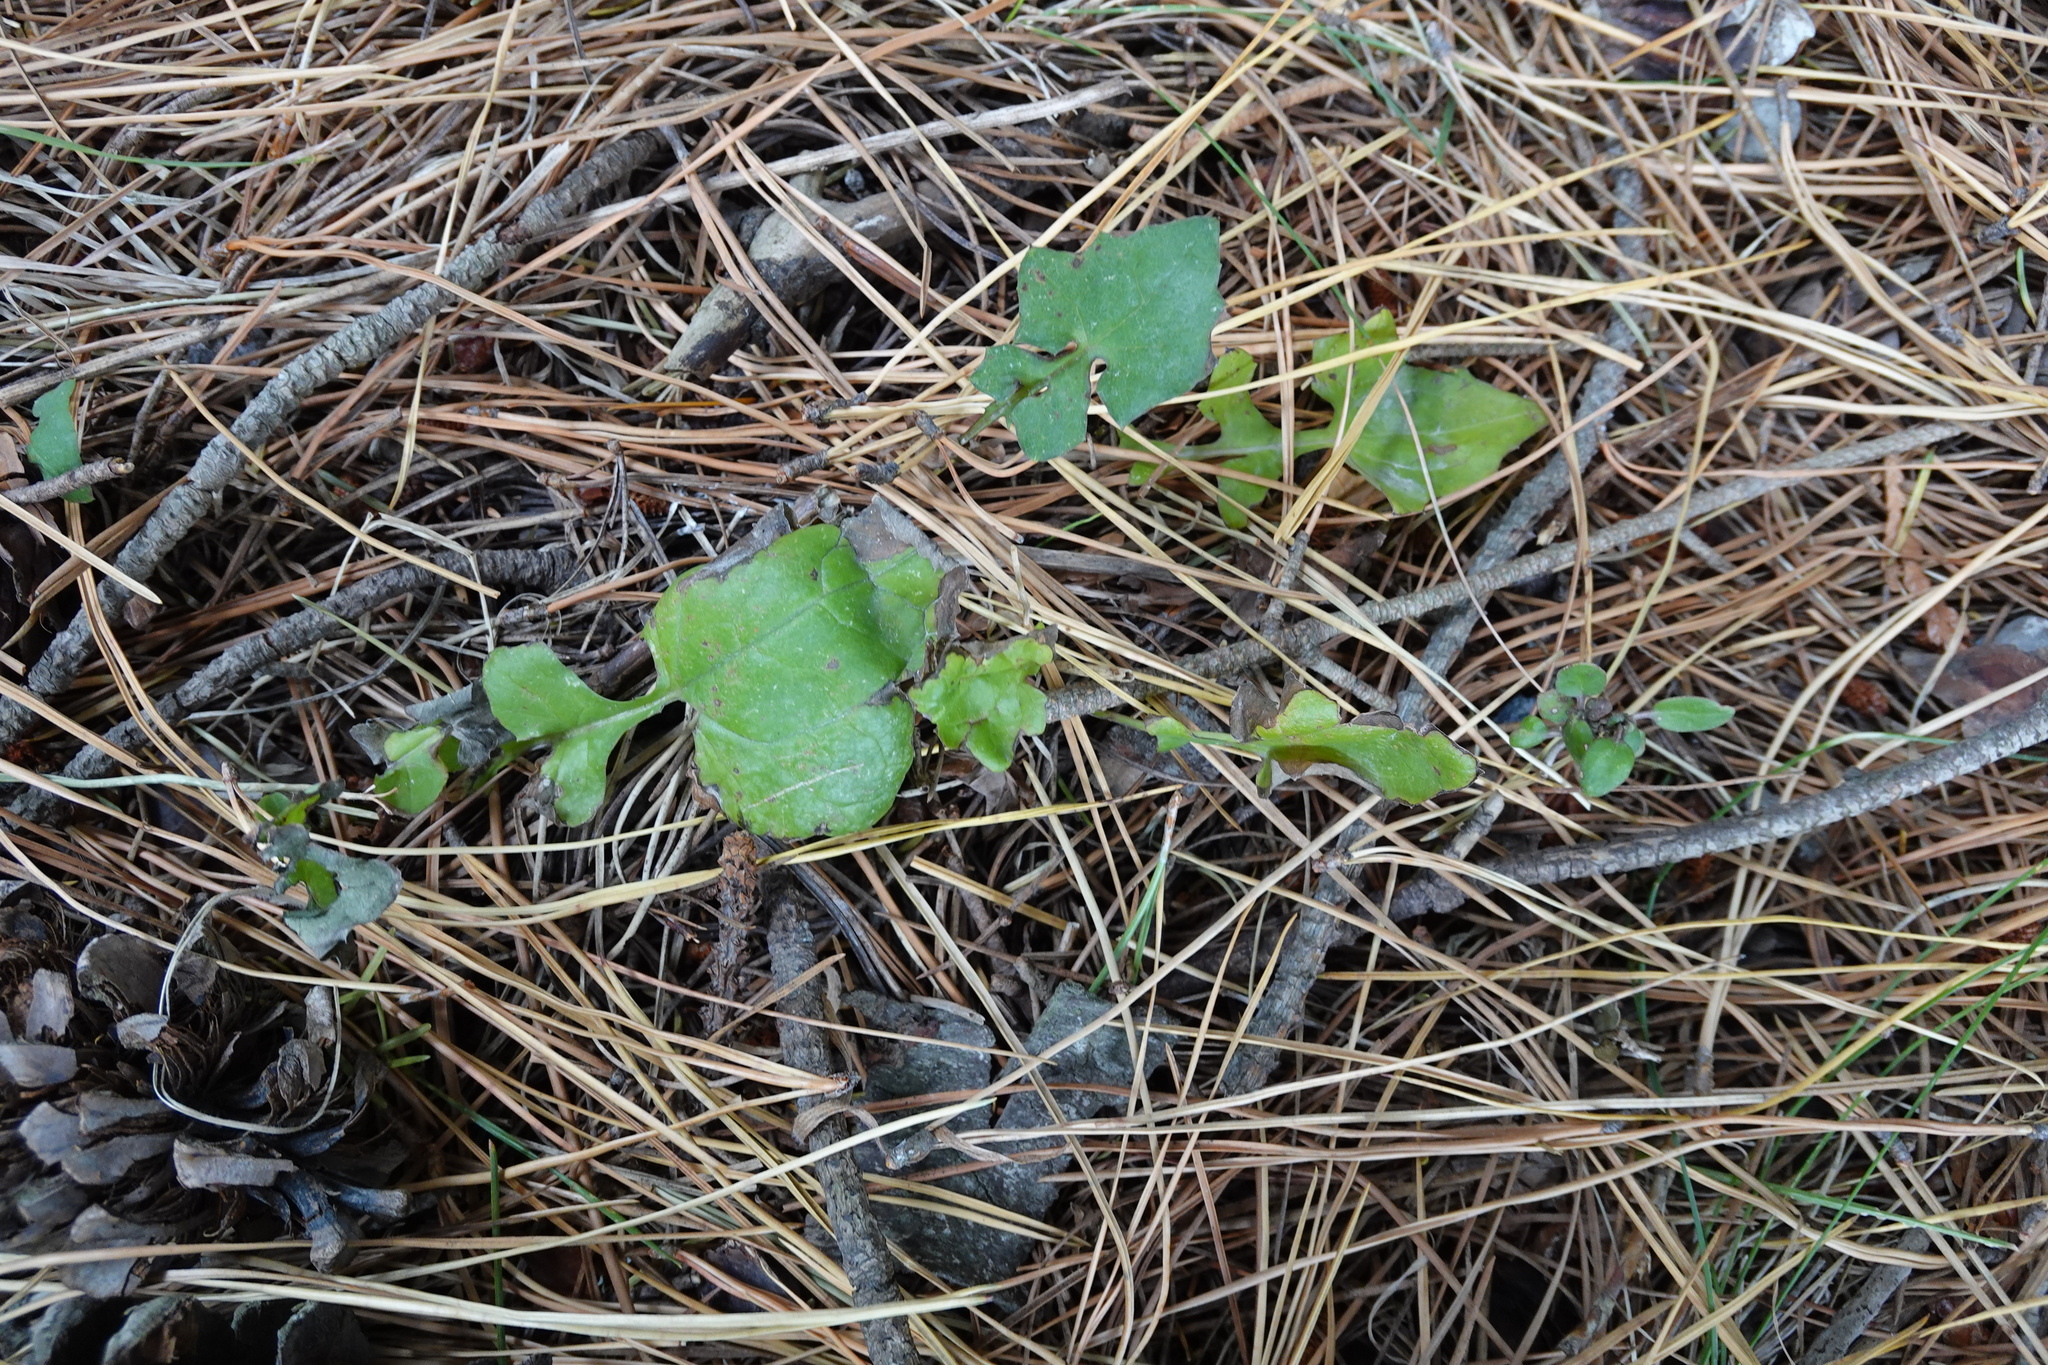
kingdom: Plantae
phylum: Tracheophyta
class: Magnoliopsida
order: Asterales
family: Asteraceae
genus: Mycelis
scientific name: Mycelis muralis
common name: Wall lettuce
